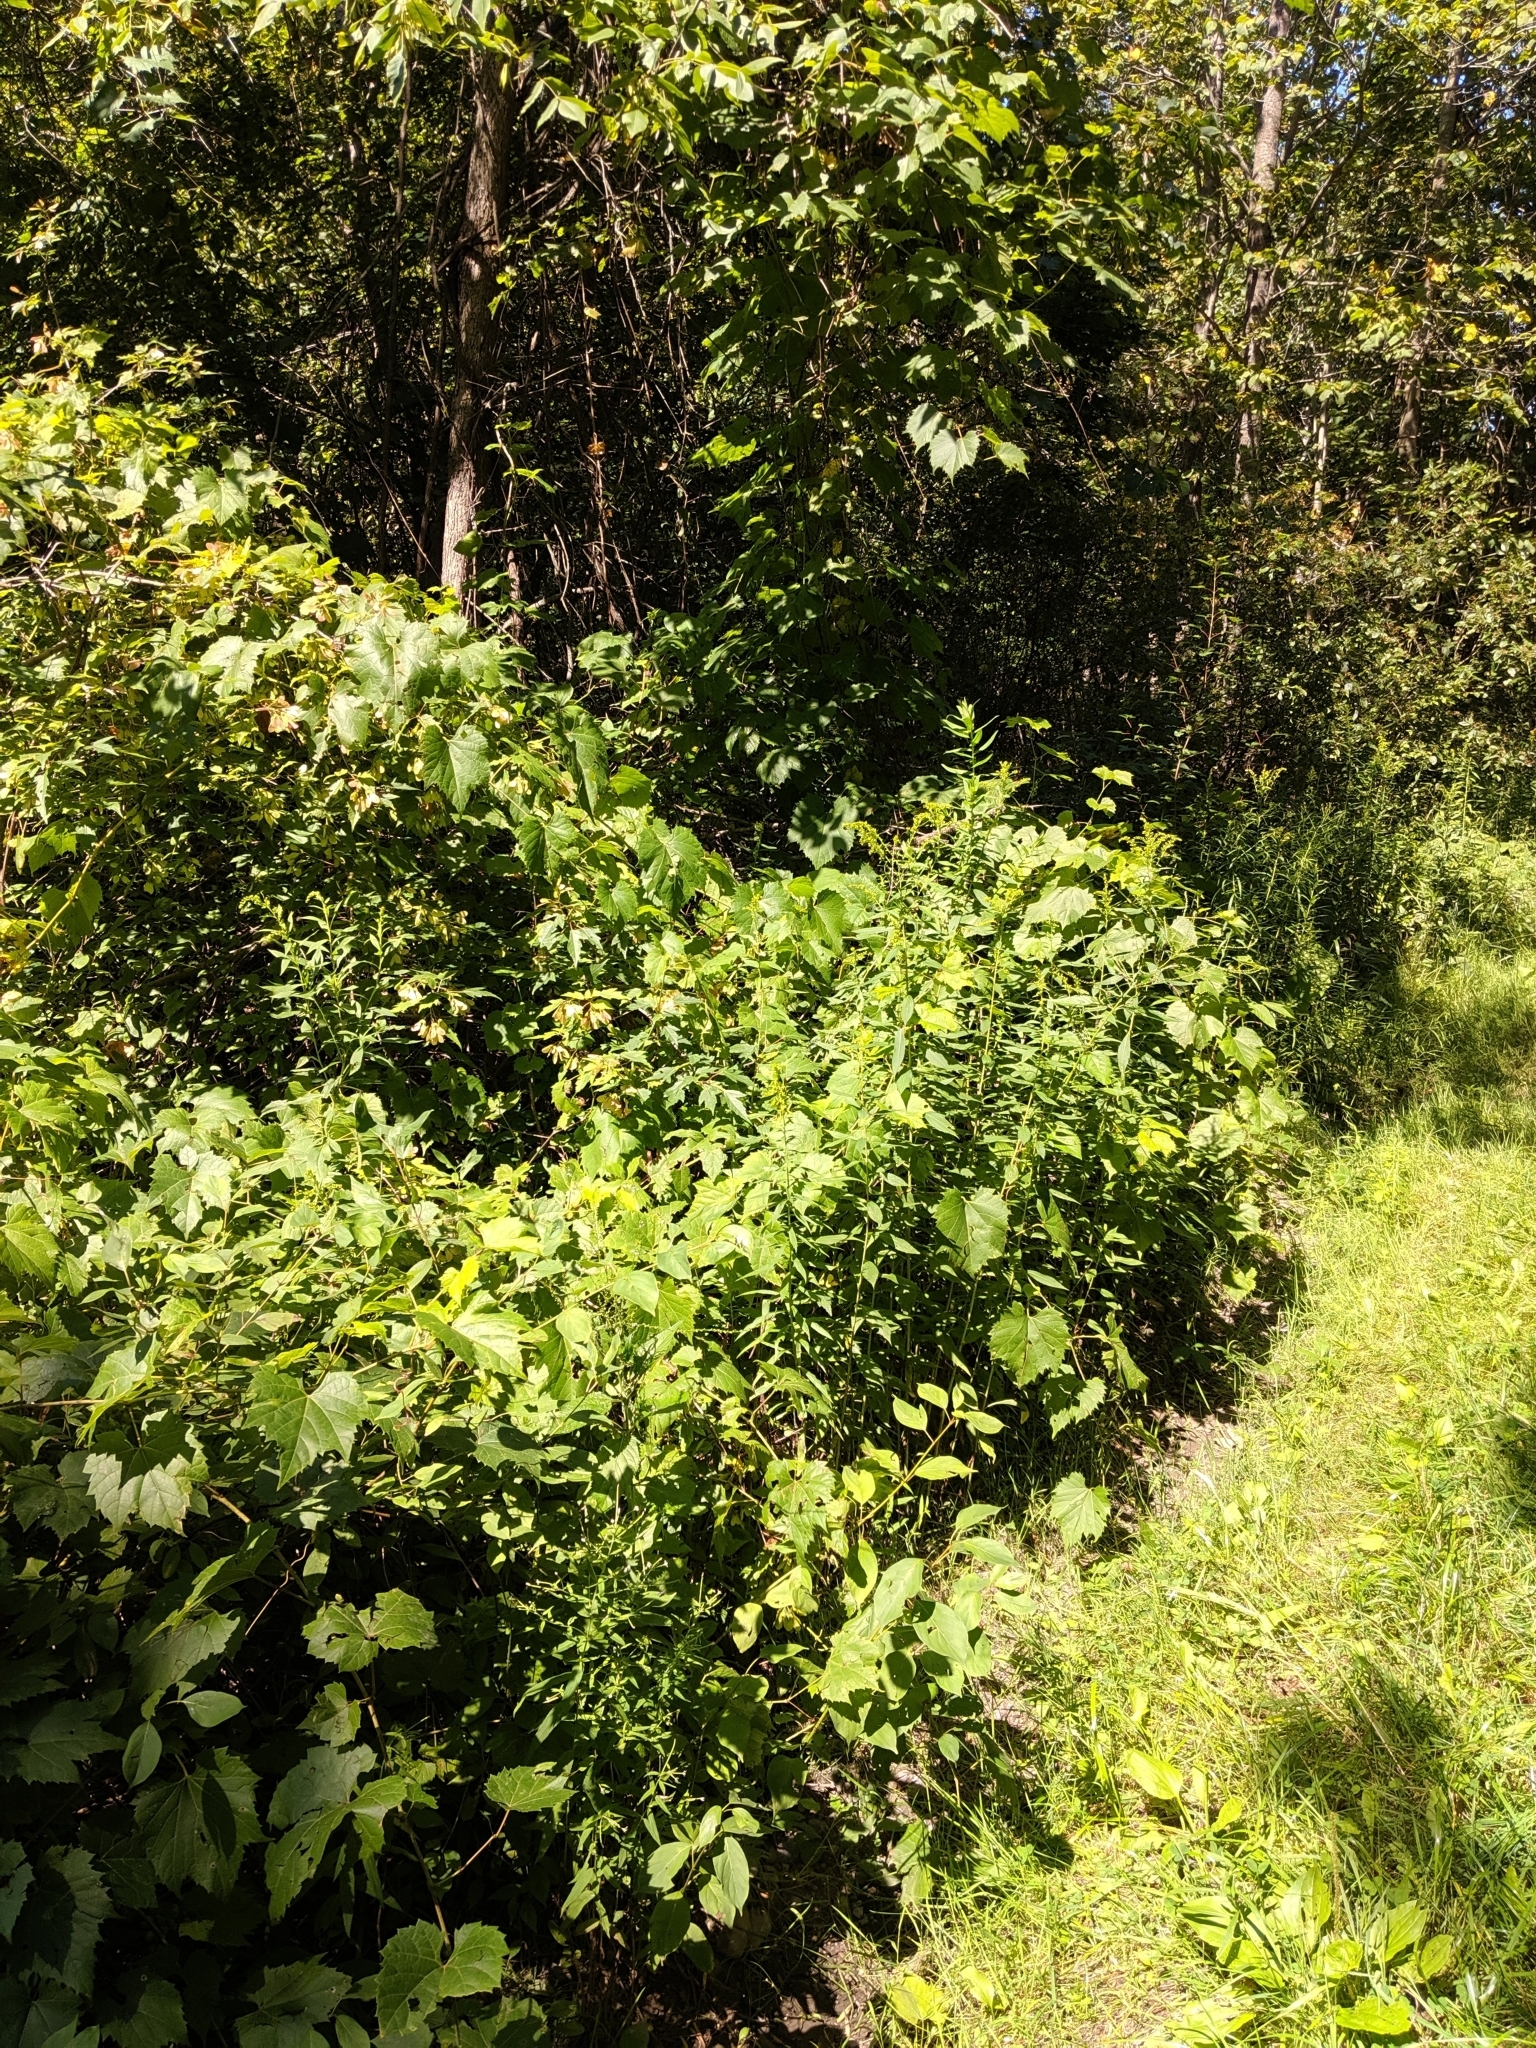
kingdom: Plantae
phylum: Tracheophyta
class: Magnoliopsida
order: Sapindales
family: Sapindaceae
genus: Acer
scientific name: Acer tataricum
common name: Tartar maple
